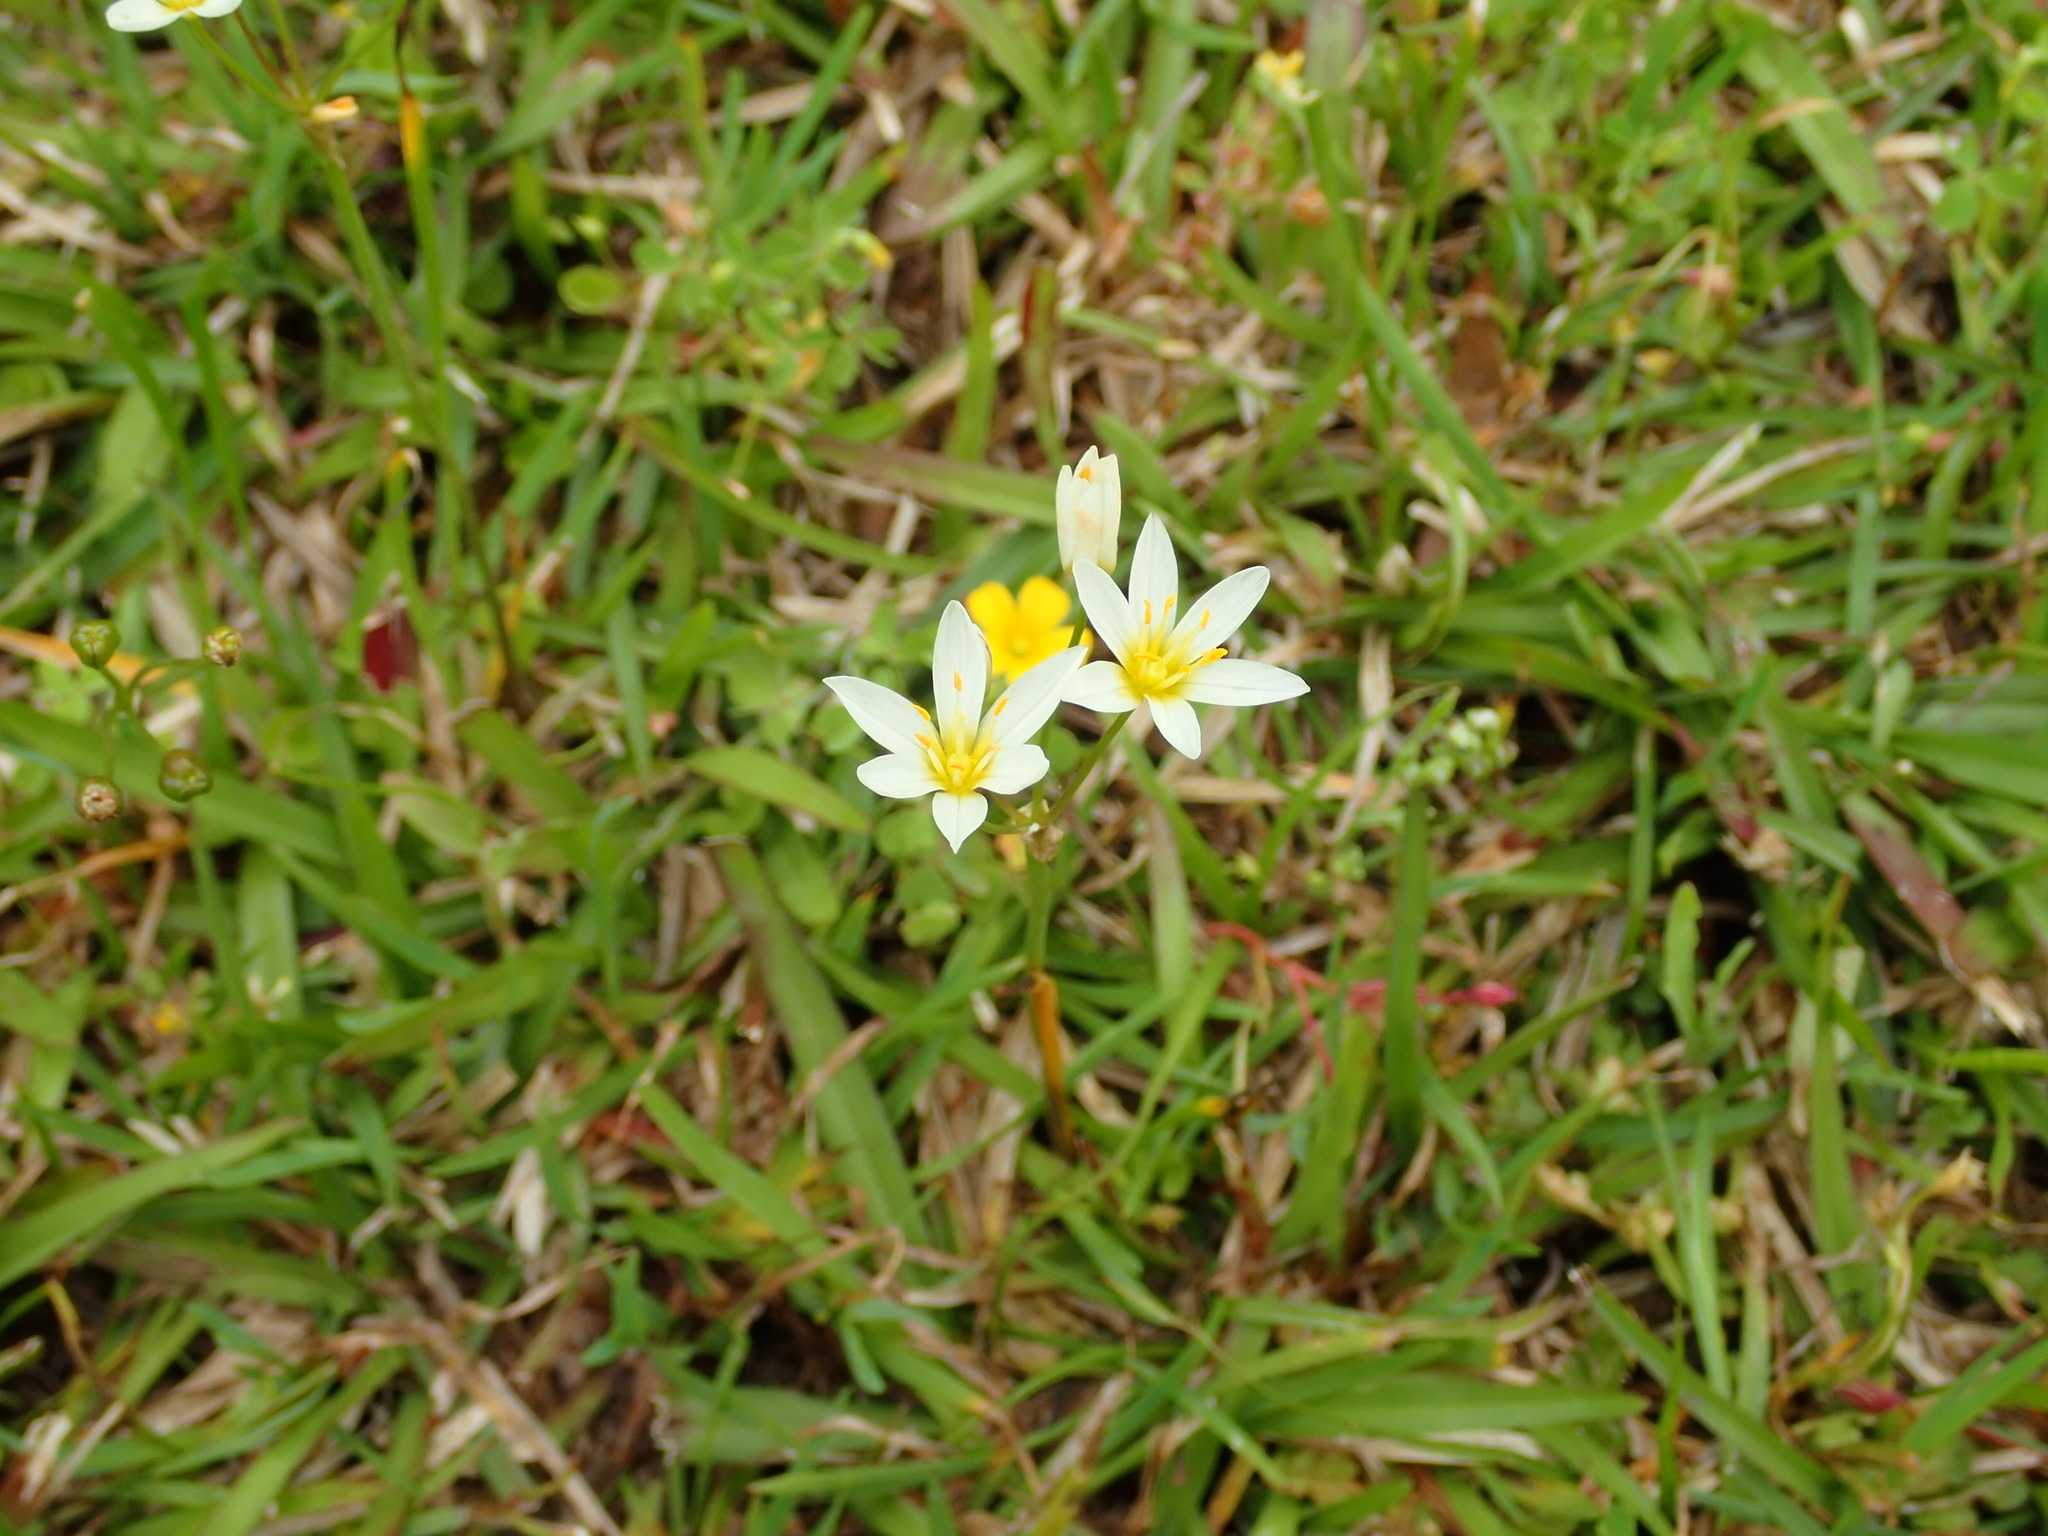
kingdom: Plantae
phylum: Tracheophyta
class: Liliopsida
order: Asparagales
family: Amaryllidaceae
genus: Nothoscordum
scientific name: Nothoscordum bivalve
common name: Crow-poison
